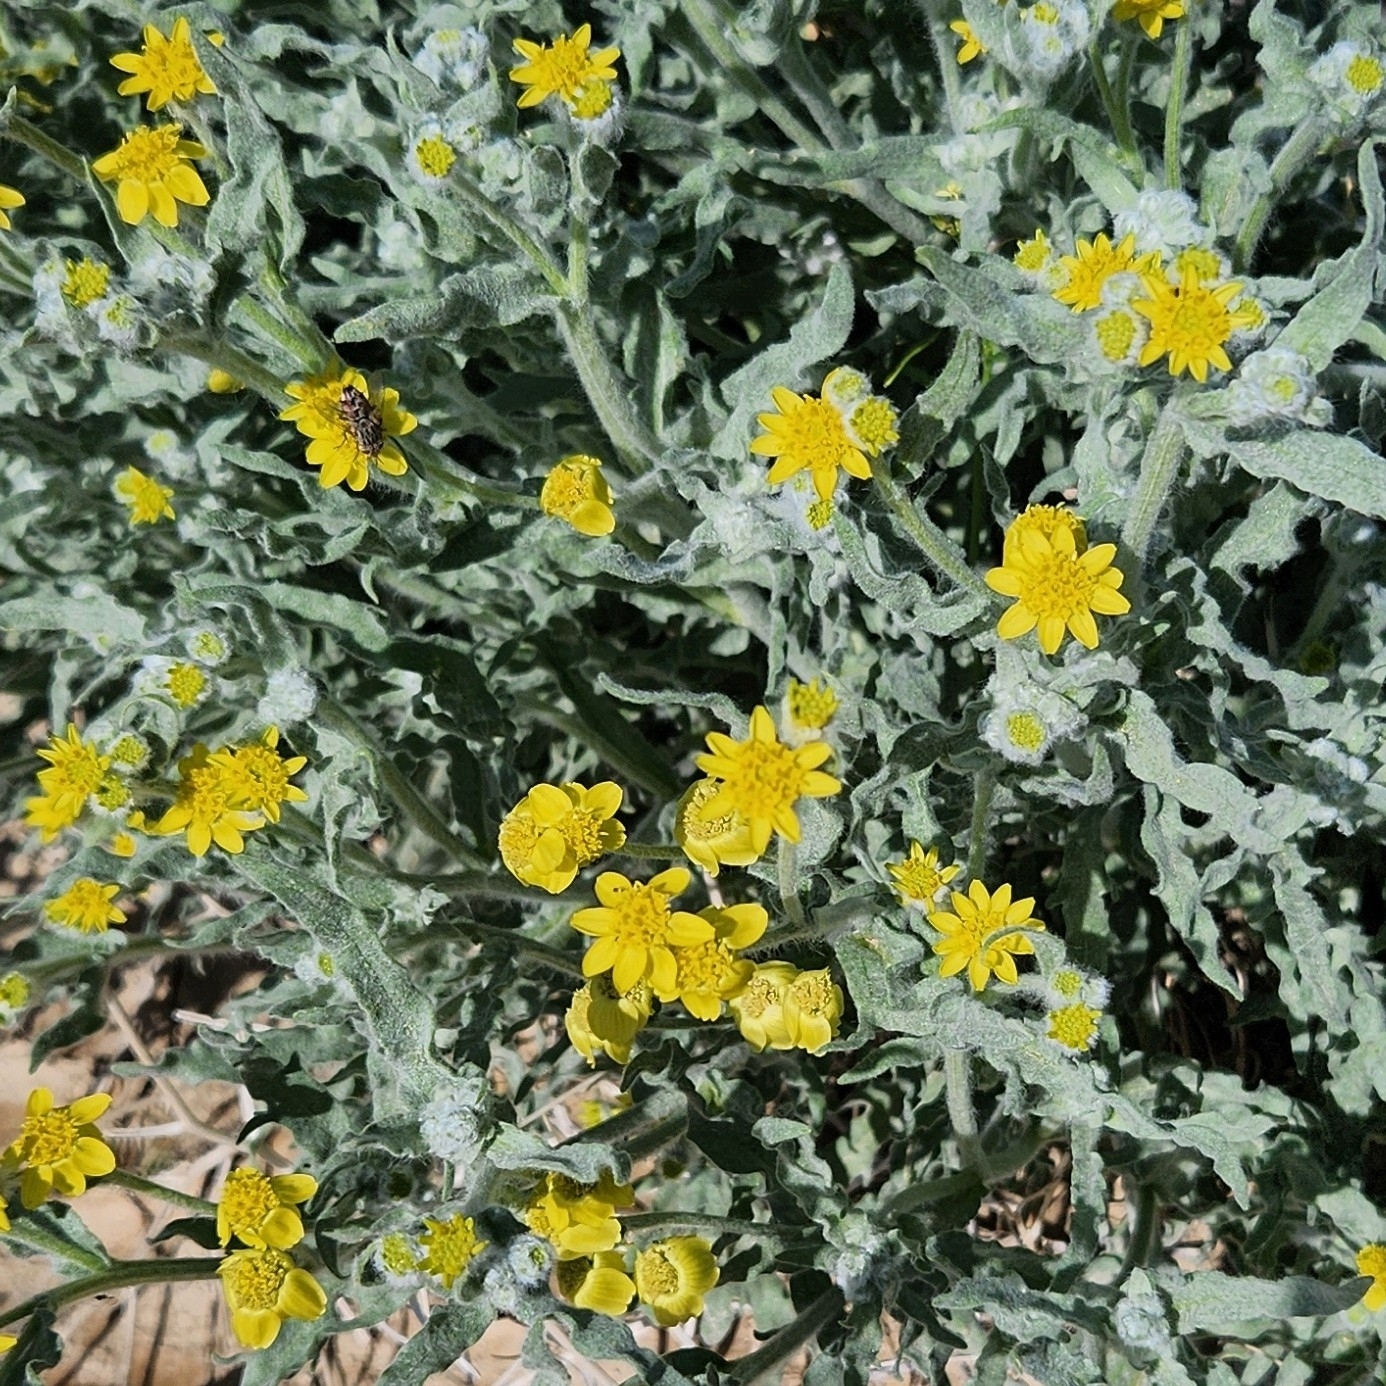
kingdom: Plantae
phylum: Tracheophyta
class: Magnoliopsida
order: Asterales
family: Asteraceae
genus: Baileya
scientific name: Baileya pauciradiata
